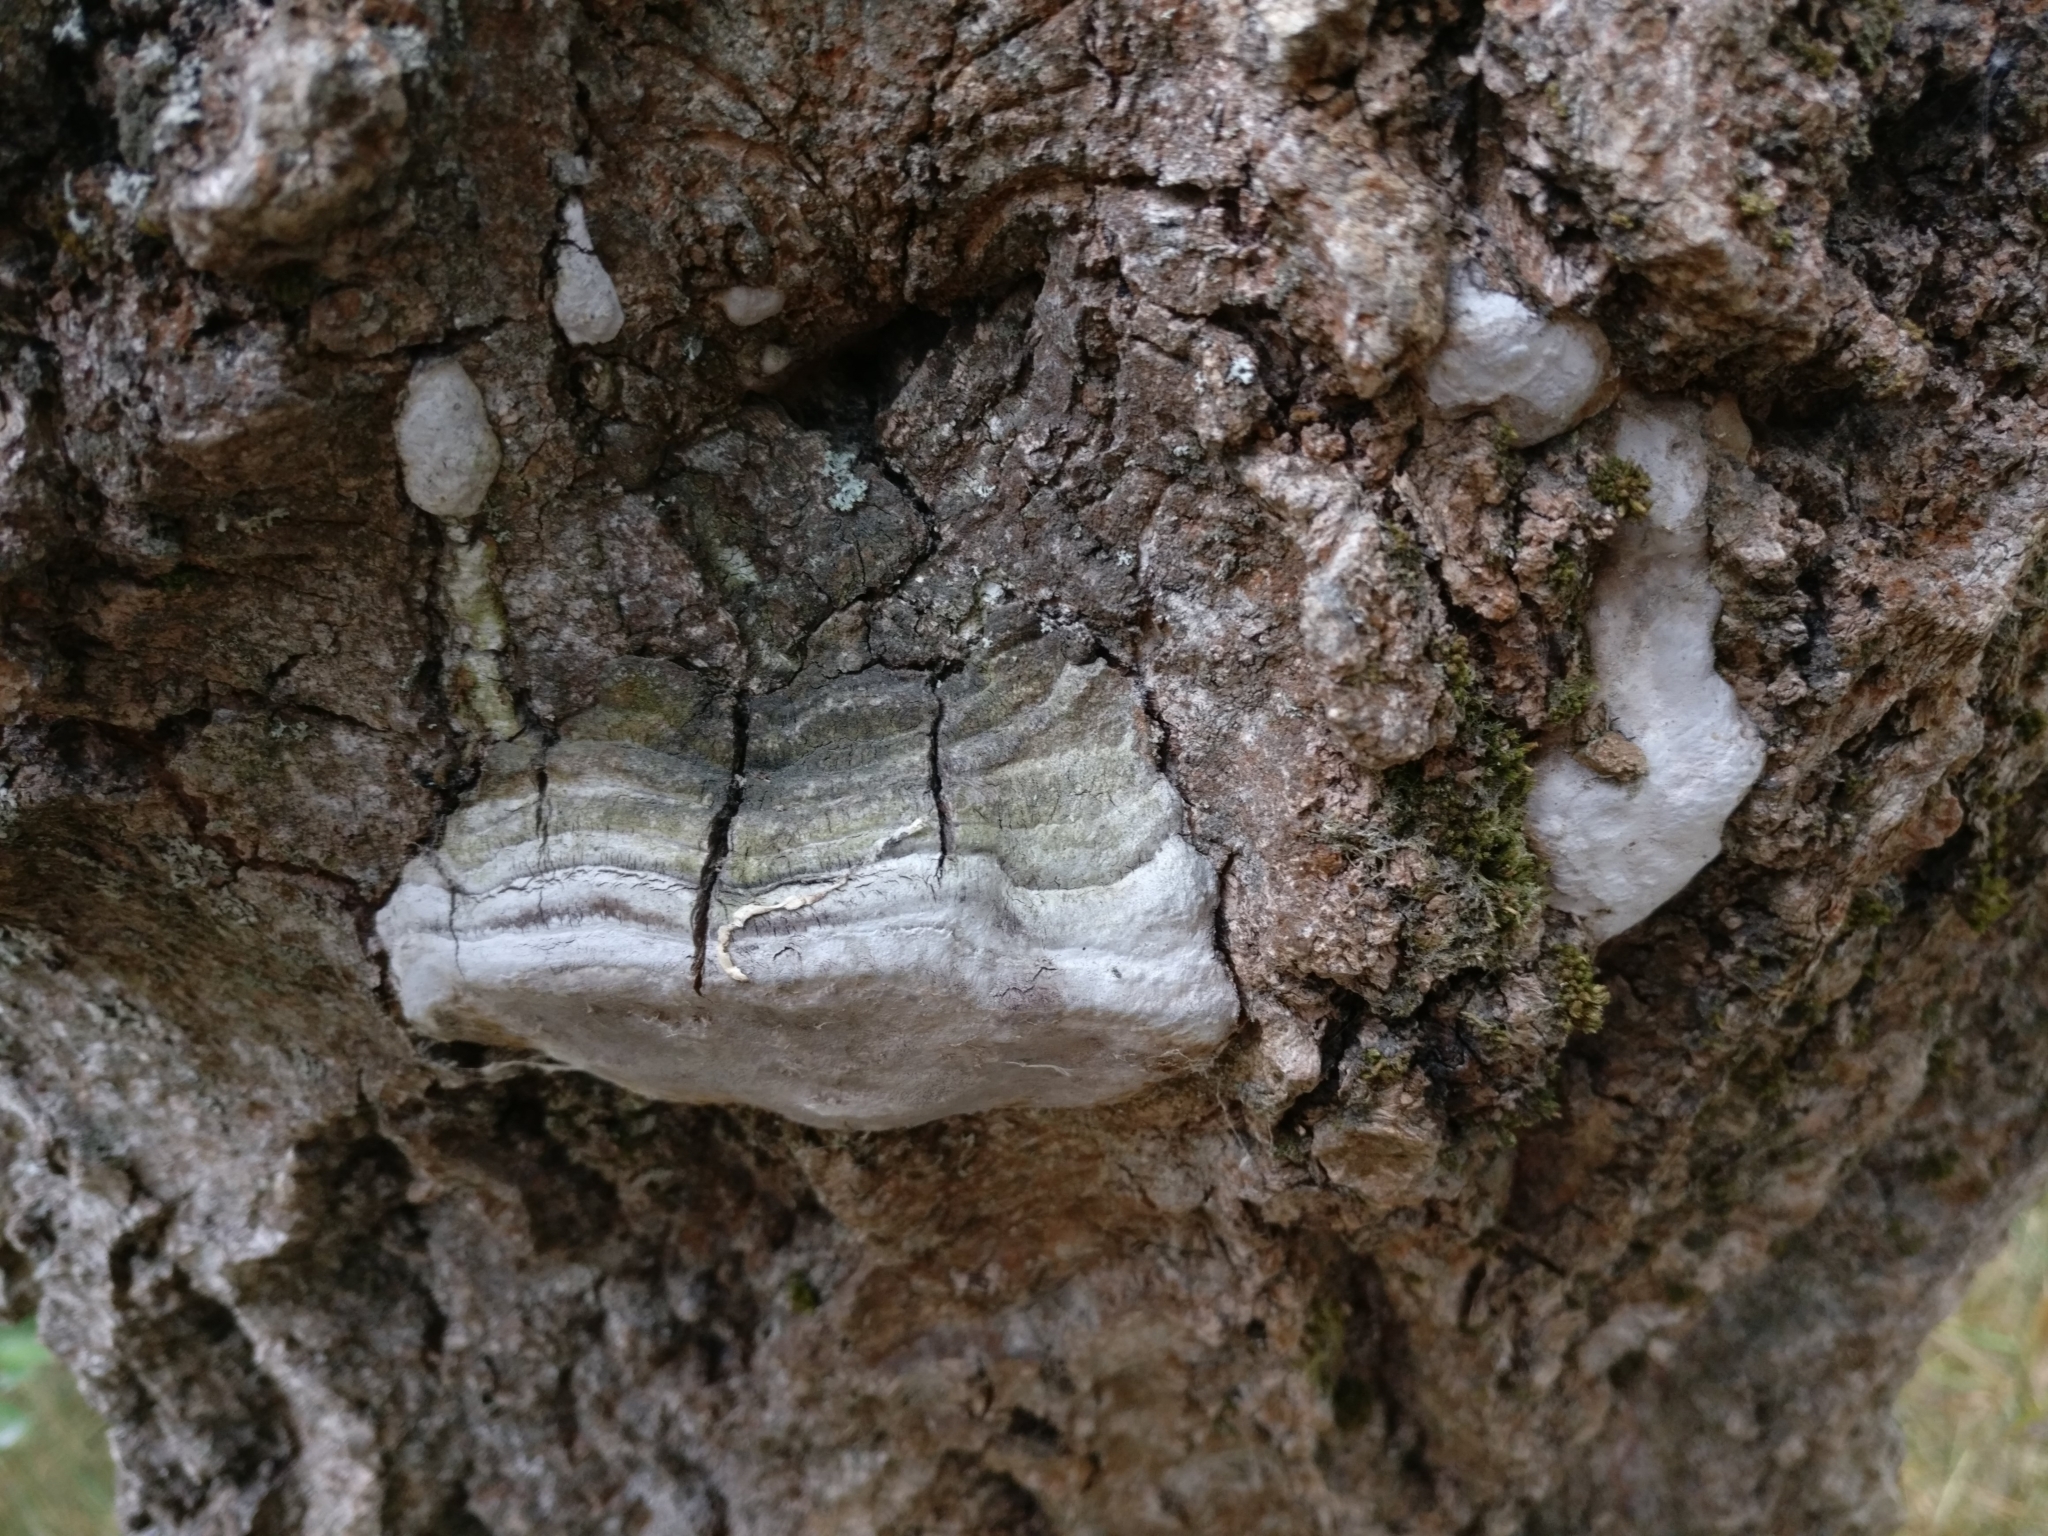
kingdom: Fungi
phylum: Basidiomycota
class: Agaricomycetes
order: Hymenochaetales
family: Hymenochaetaceae
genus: Phellinus
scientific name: Phellinus tremulae
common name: Aspen bracket
